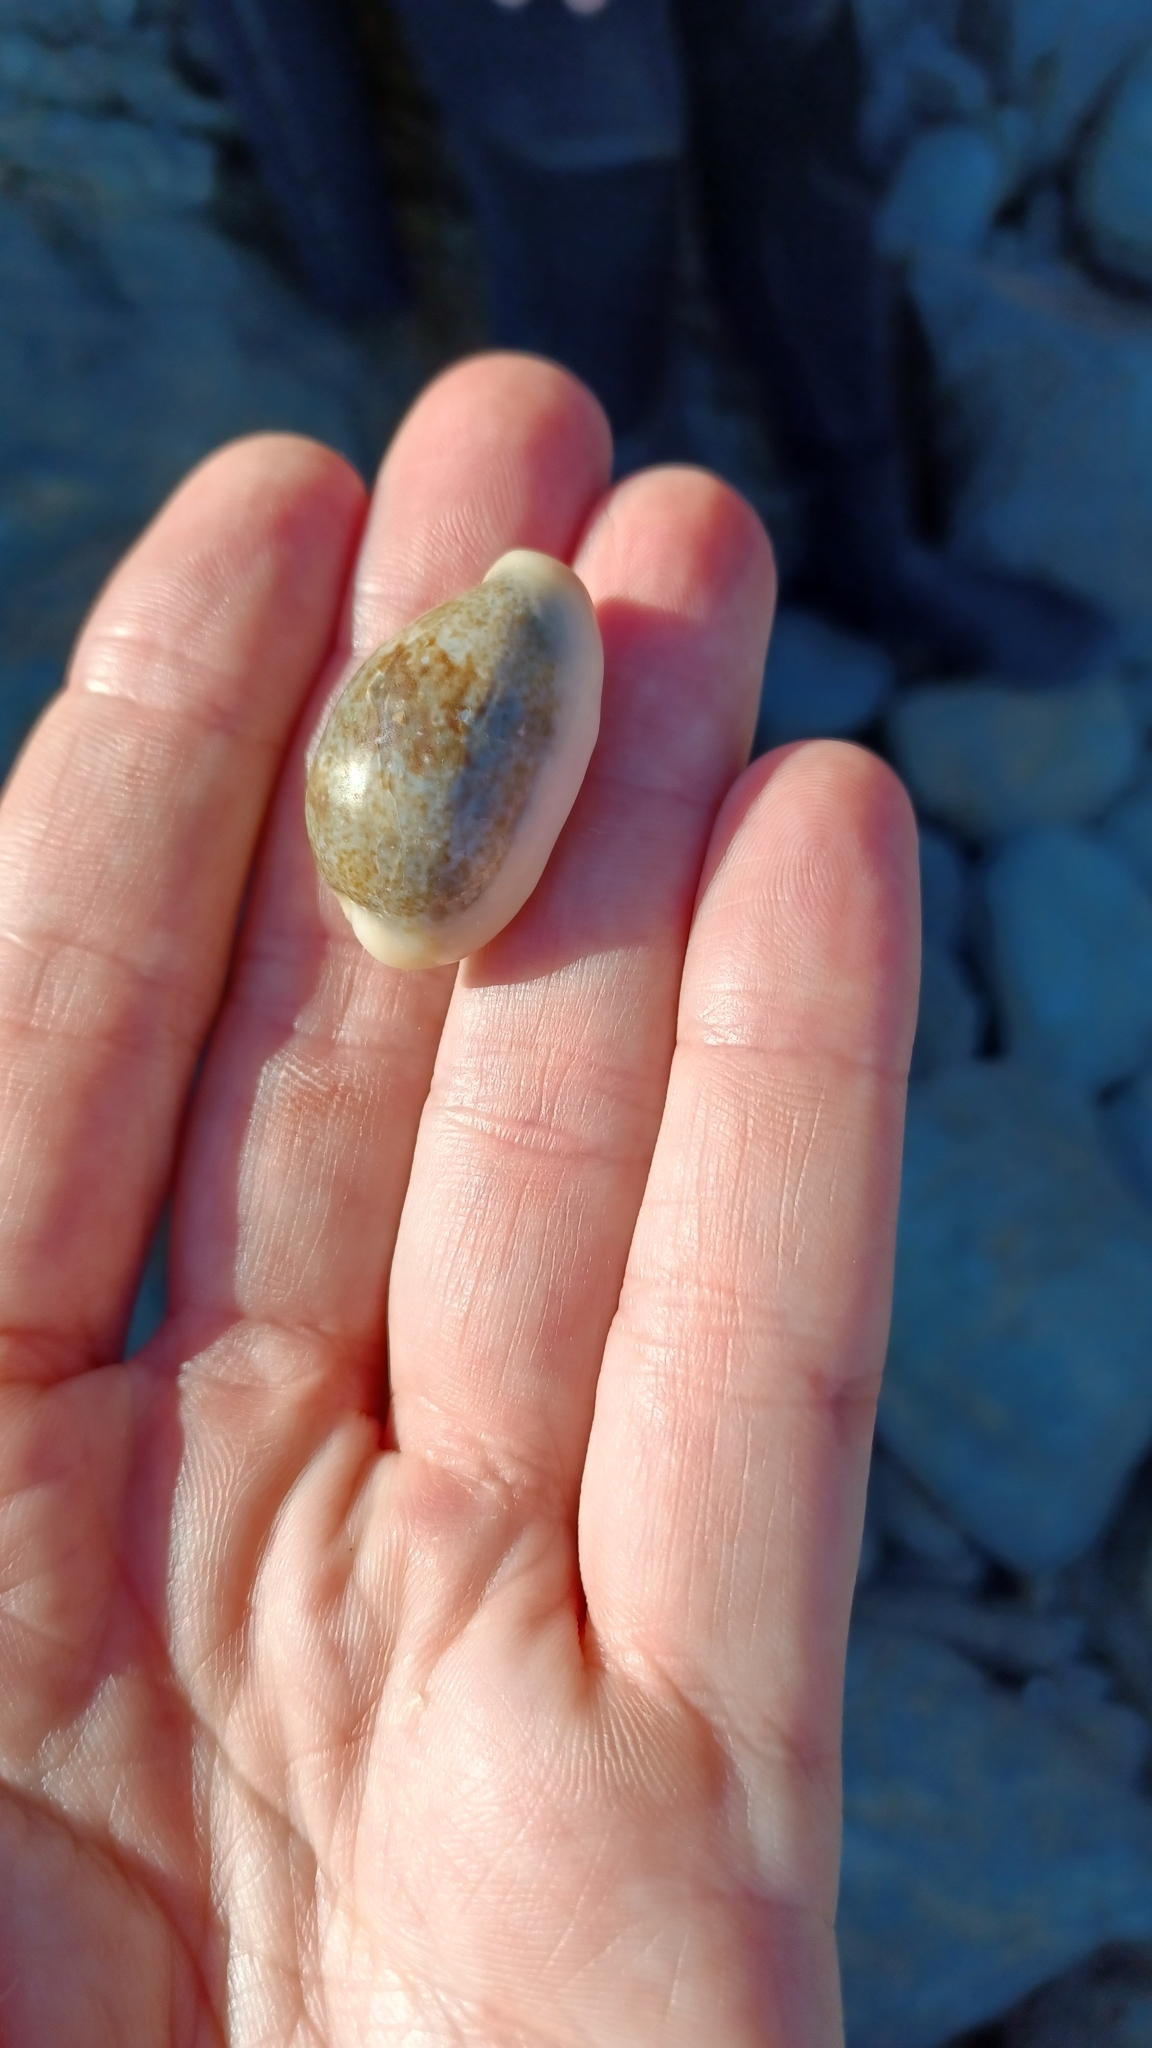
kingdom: Animalia
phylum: Mollusca
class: Gastropoda
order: Littorinimorpha
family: Cypraeidae
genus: Erronea
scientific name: Erronea errones
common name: Mistaken cowrie
